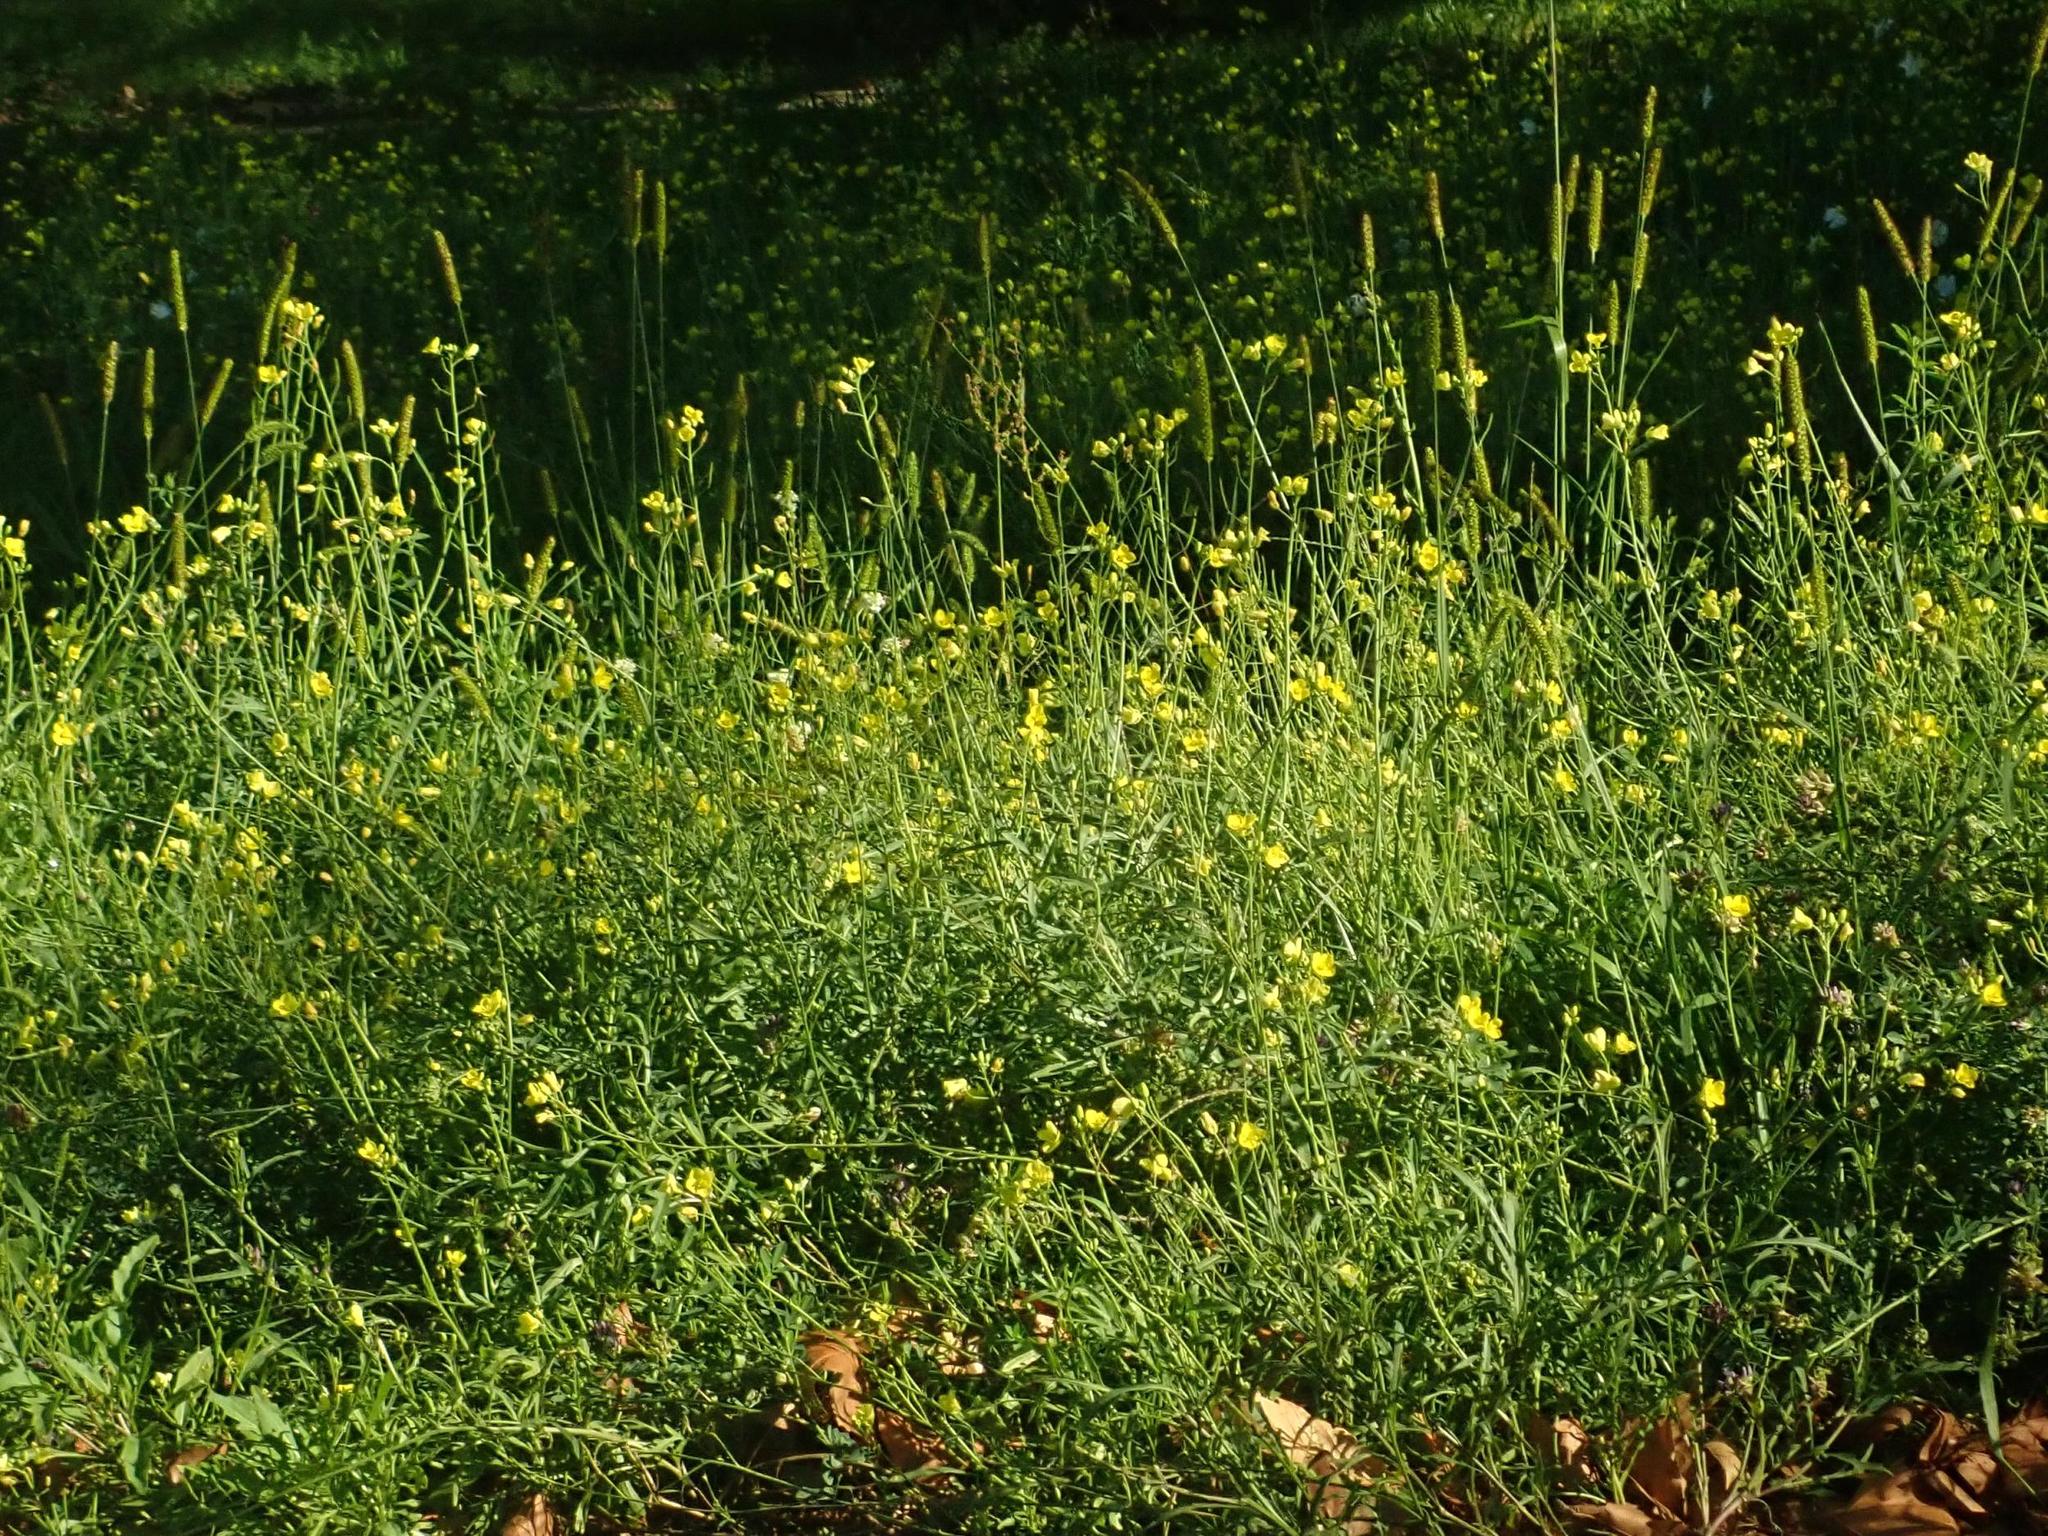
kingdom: Plantae
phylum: Tracheophyta
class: Magnoliopsida
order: Brassicales
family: Brassicaceae
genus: Diplotaxis
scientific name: Diplotaxis tenuifolia
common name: Perennial wall-rocket
